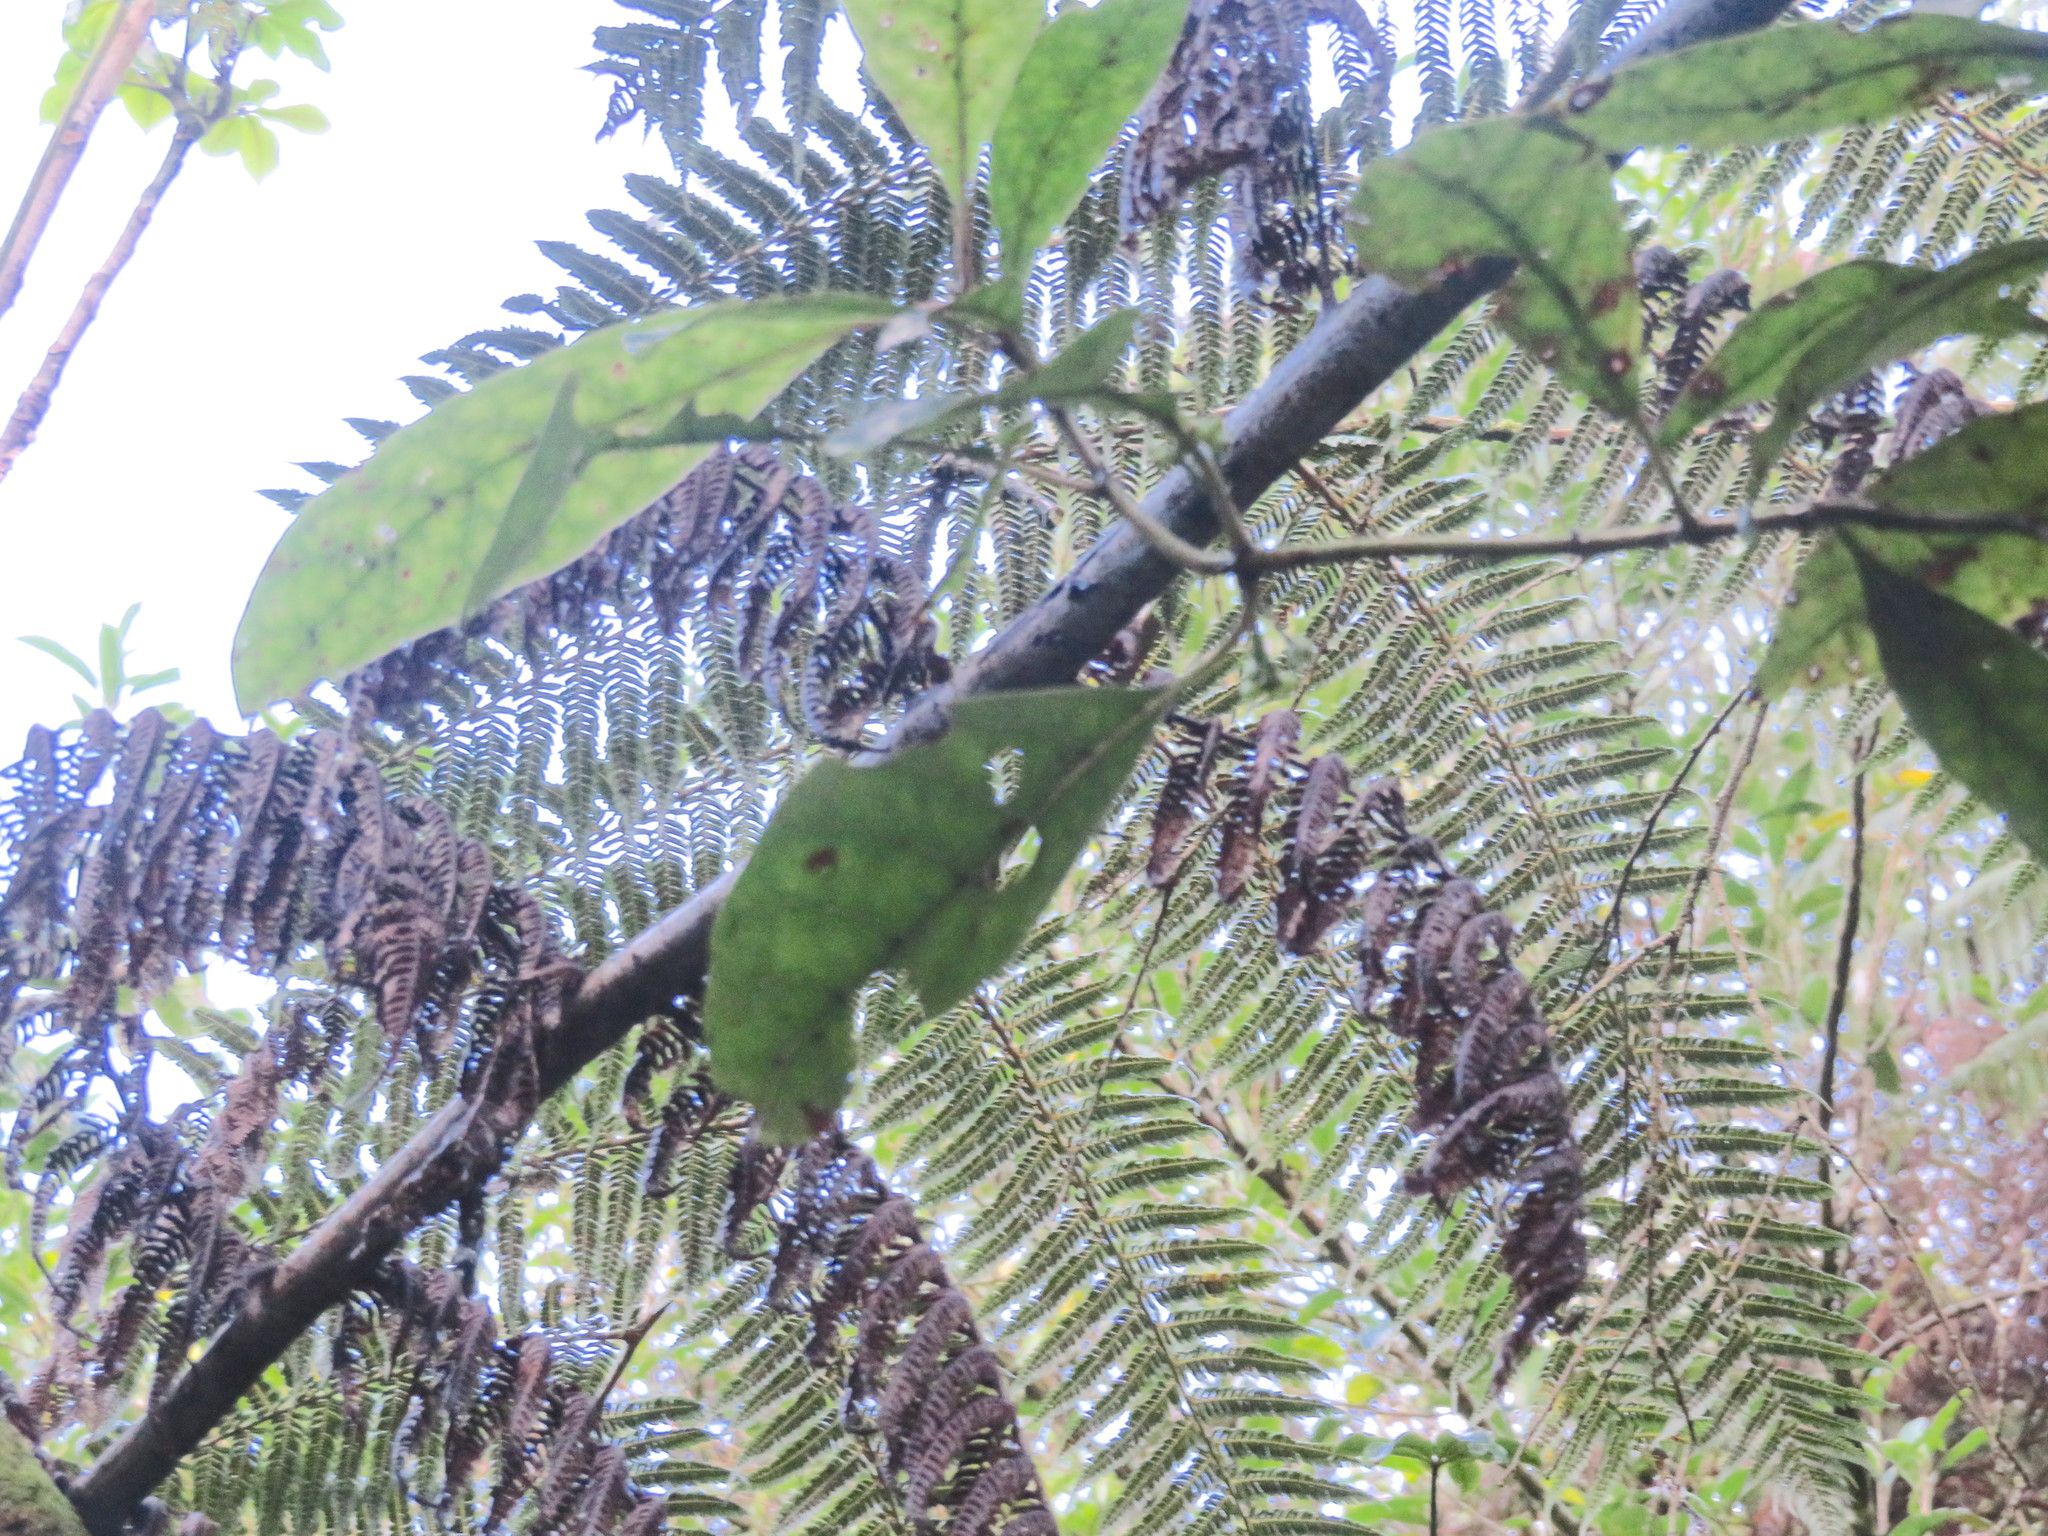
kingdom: Plantae
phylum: Tracheophyta
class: Polypodiopsida
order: Cyatheales
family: Cyatheaceae
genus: Alsophila
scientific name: Alsophila dealbata
